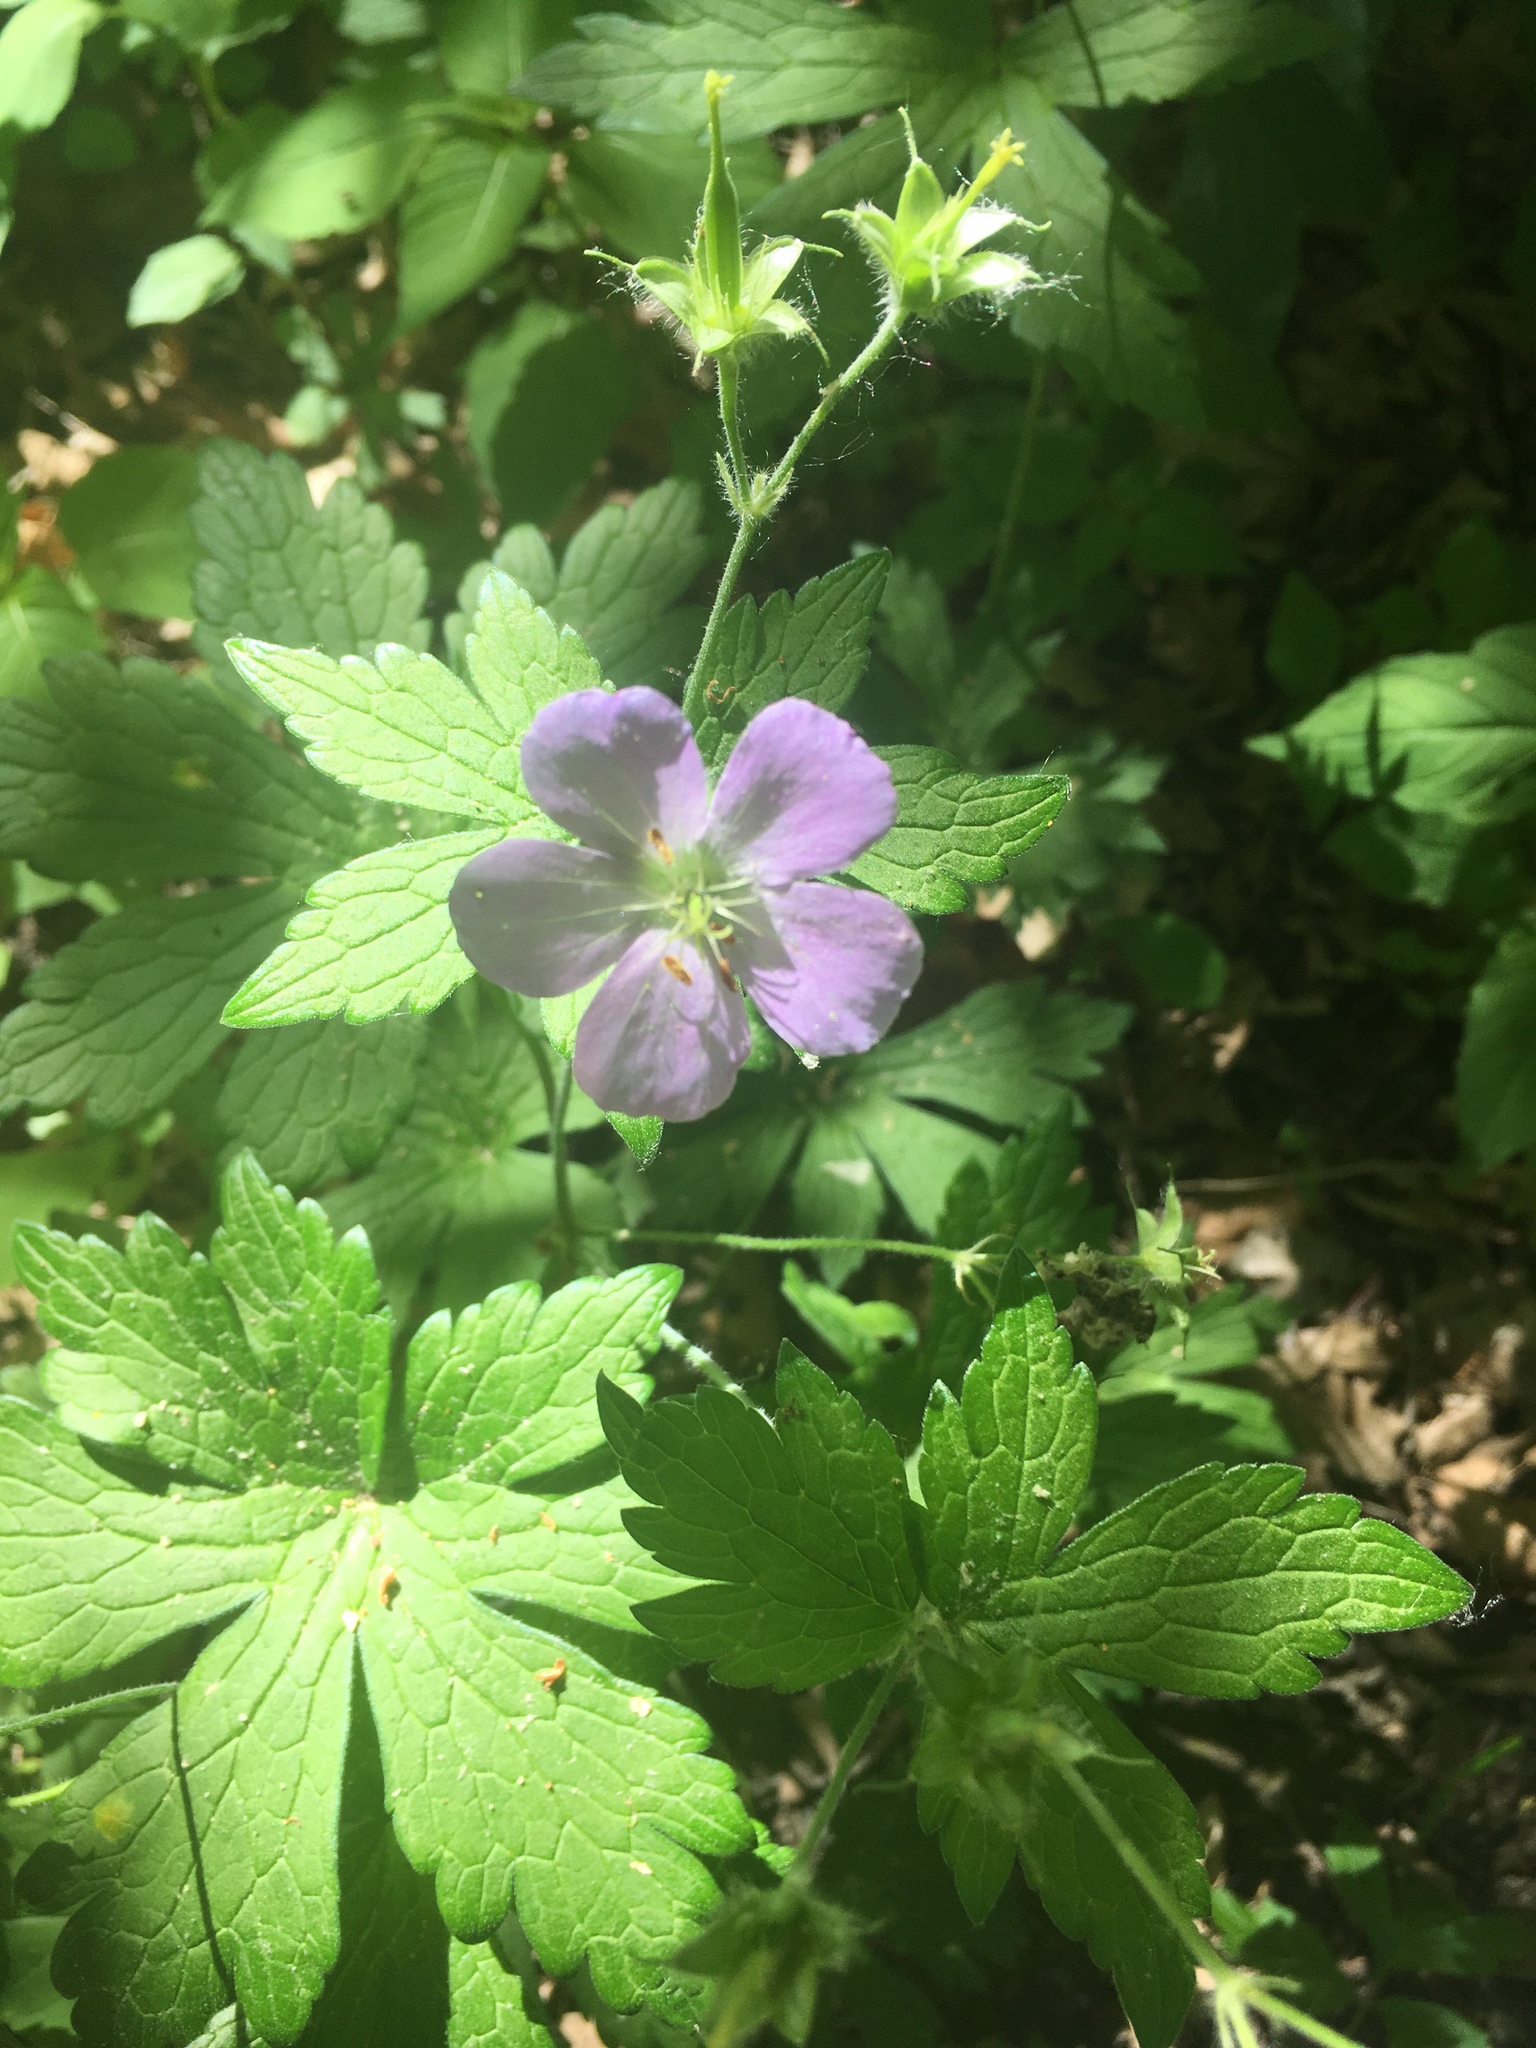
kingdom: Plantae
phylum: Tracheophyta
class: Magnoliopsida
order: Geraniales
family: Geraniaceae
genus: Geranium
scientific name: Geranium maculatum
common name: Spotted geranium
